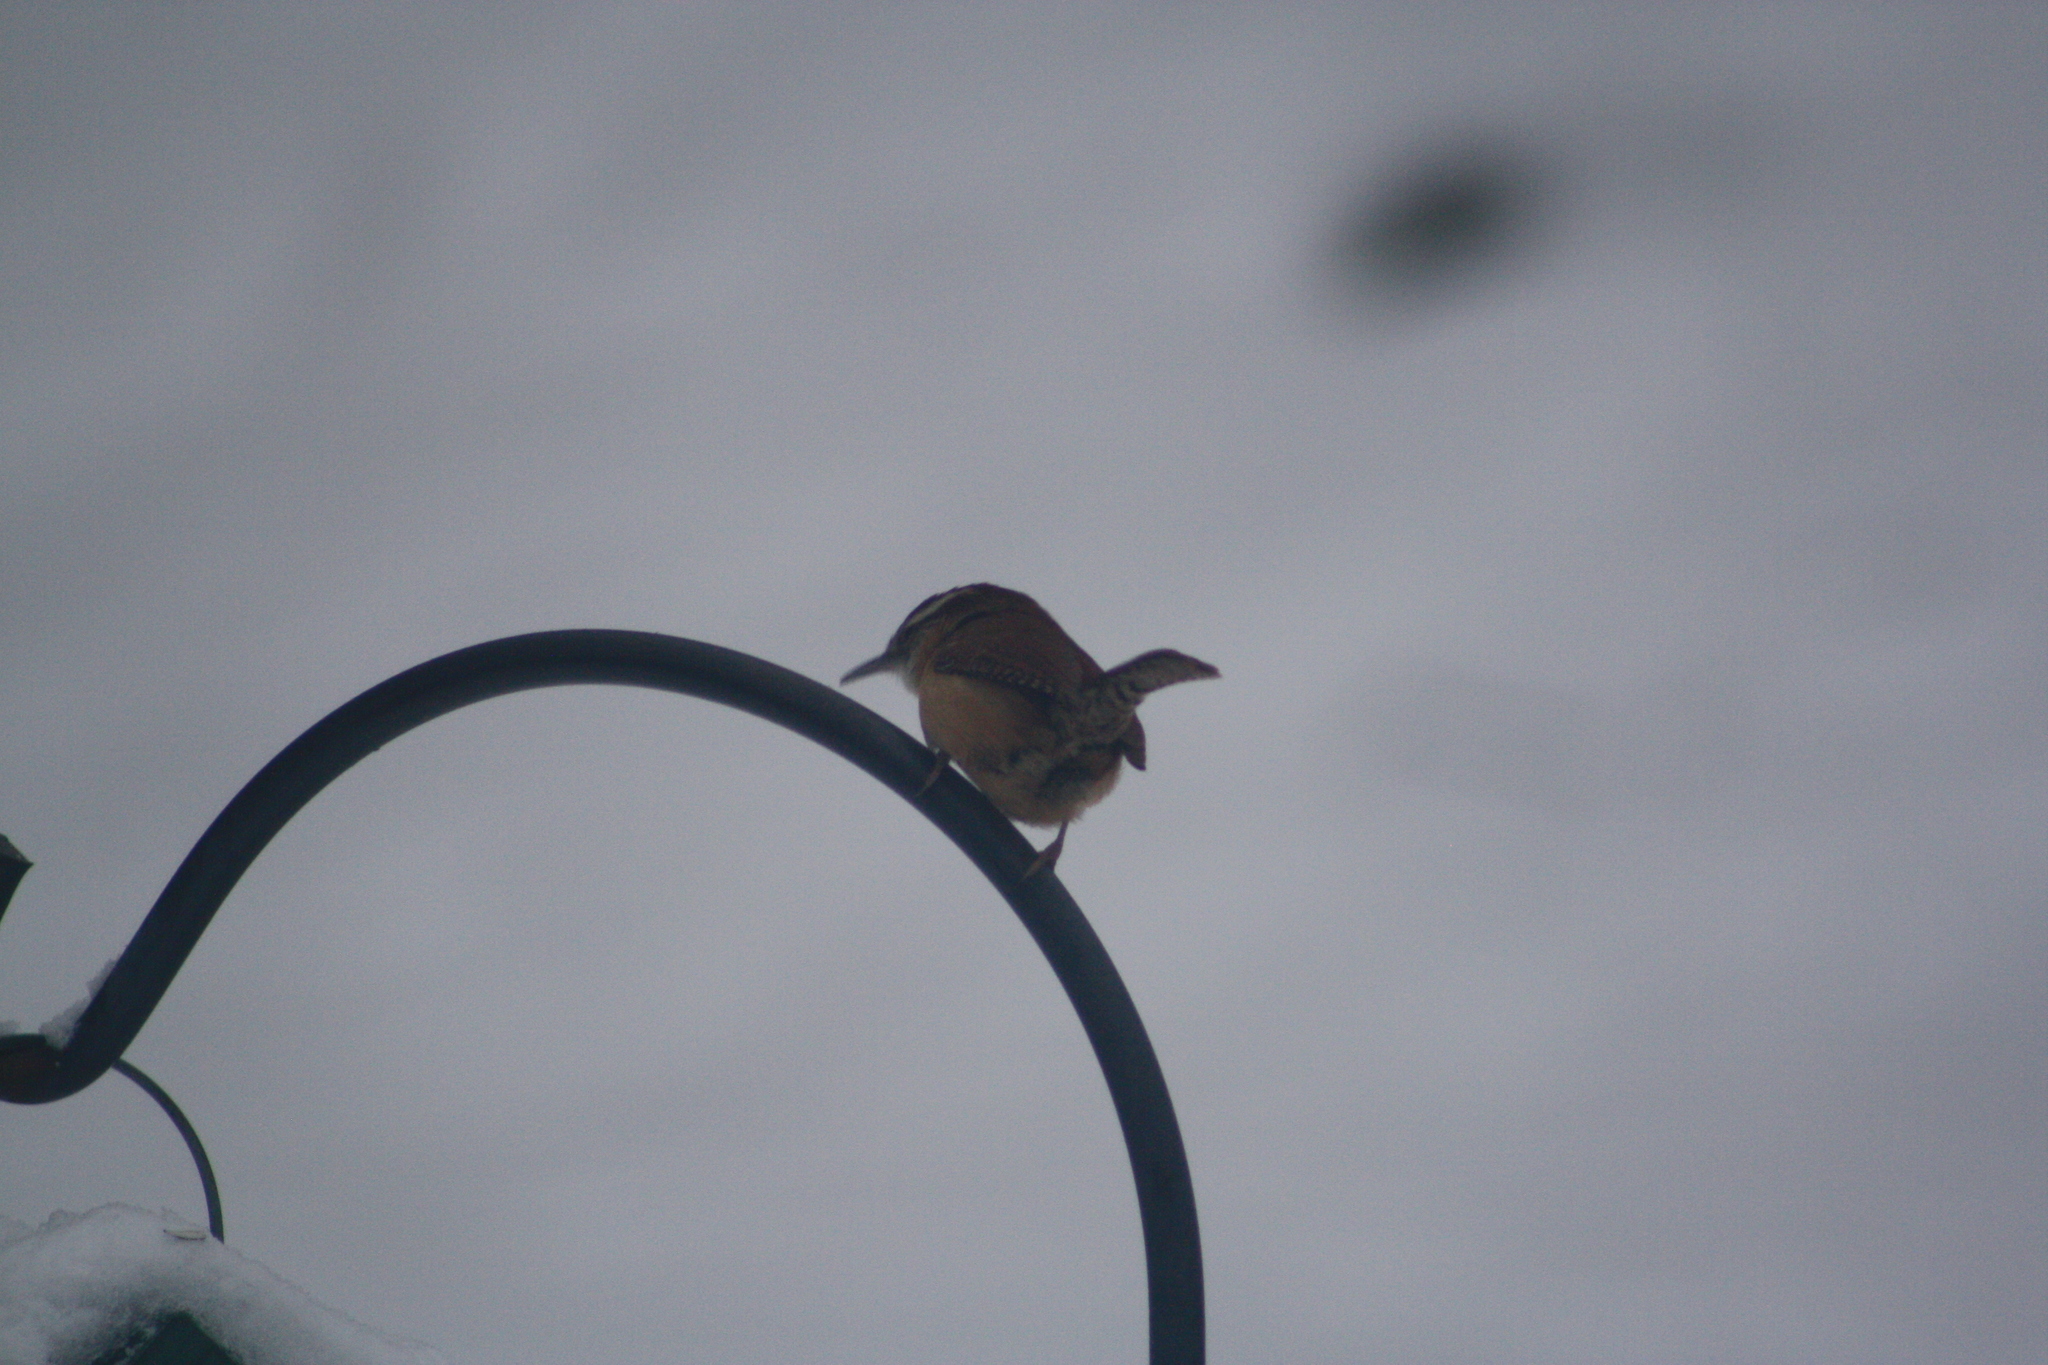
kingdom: Animalia
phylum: Chordata
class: Aves
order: Passeriformes
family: Troglodytidae
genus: Thryothorus
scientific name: Thryothorus ludovicianus
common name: Carolina wren
